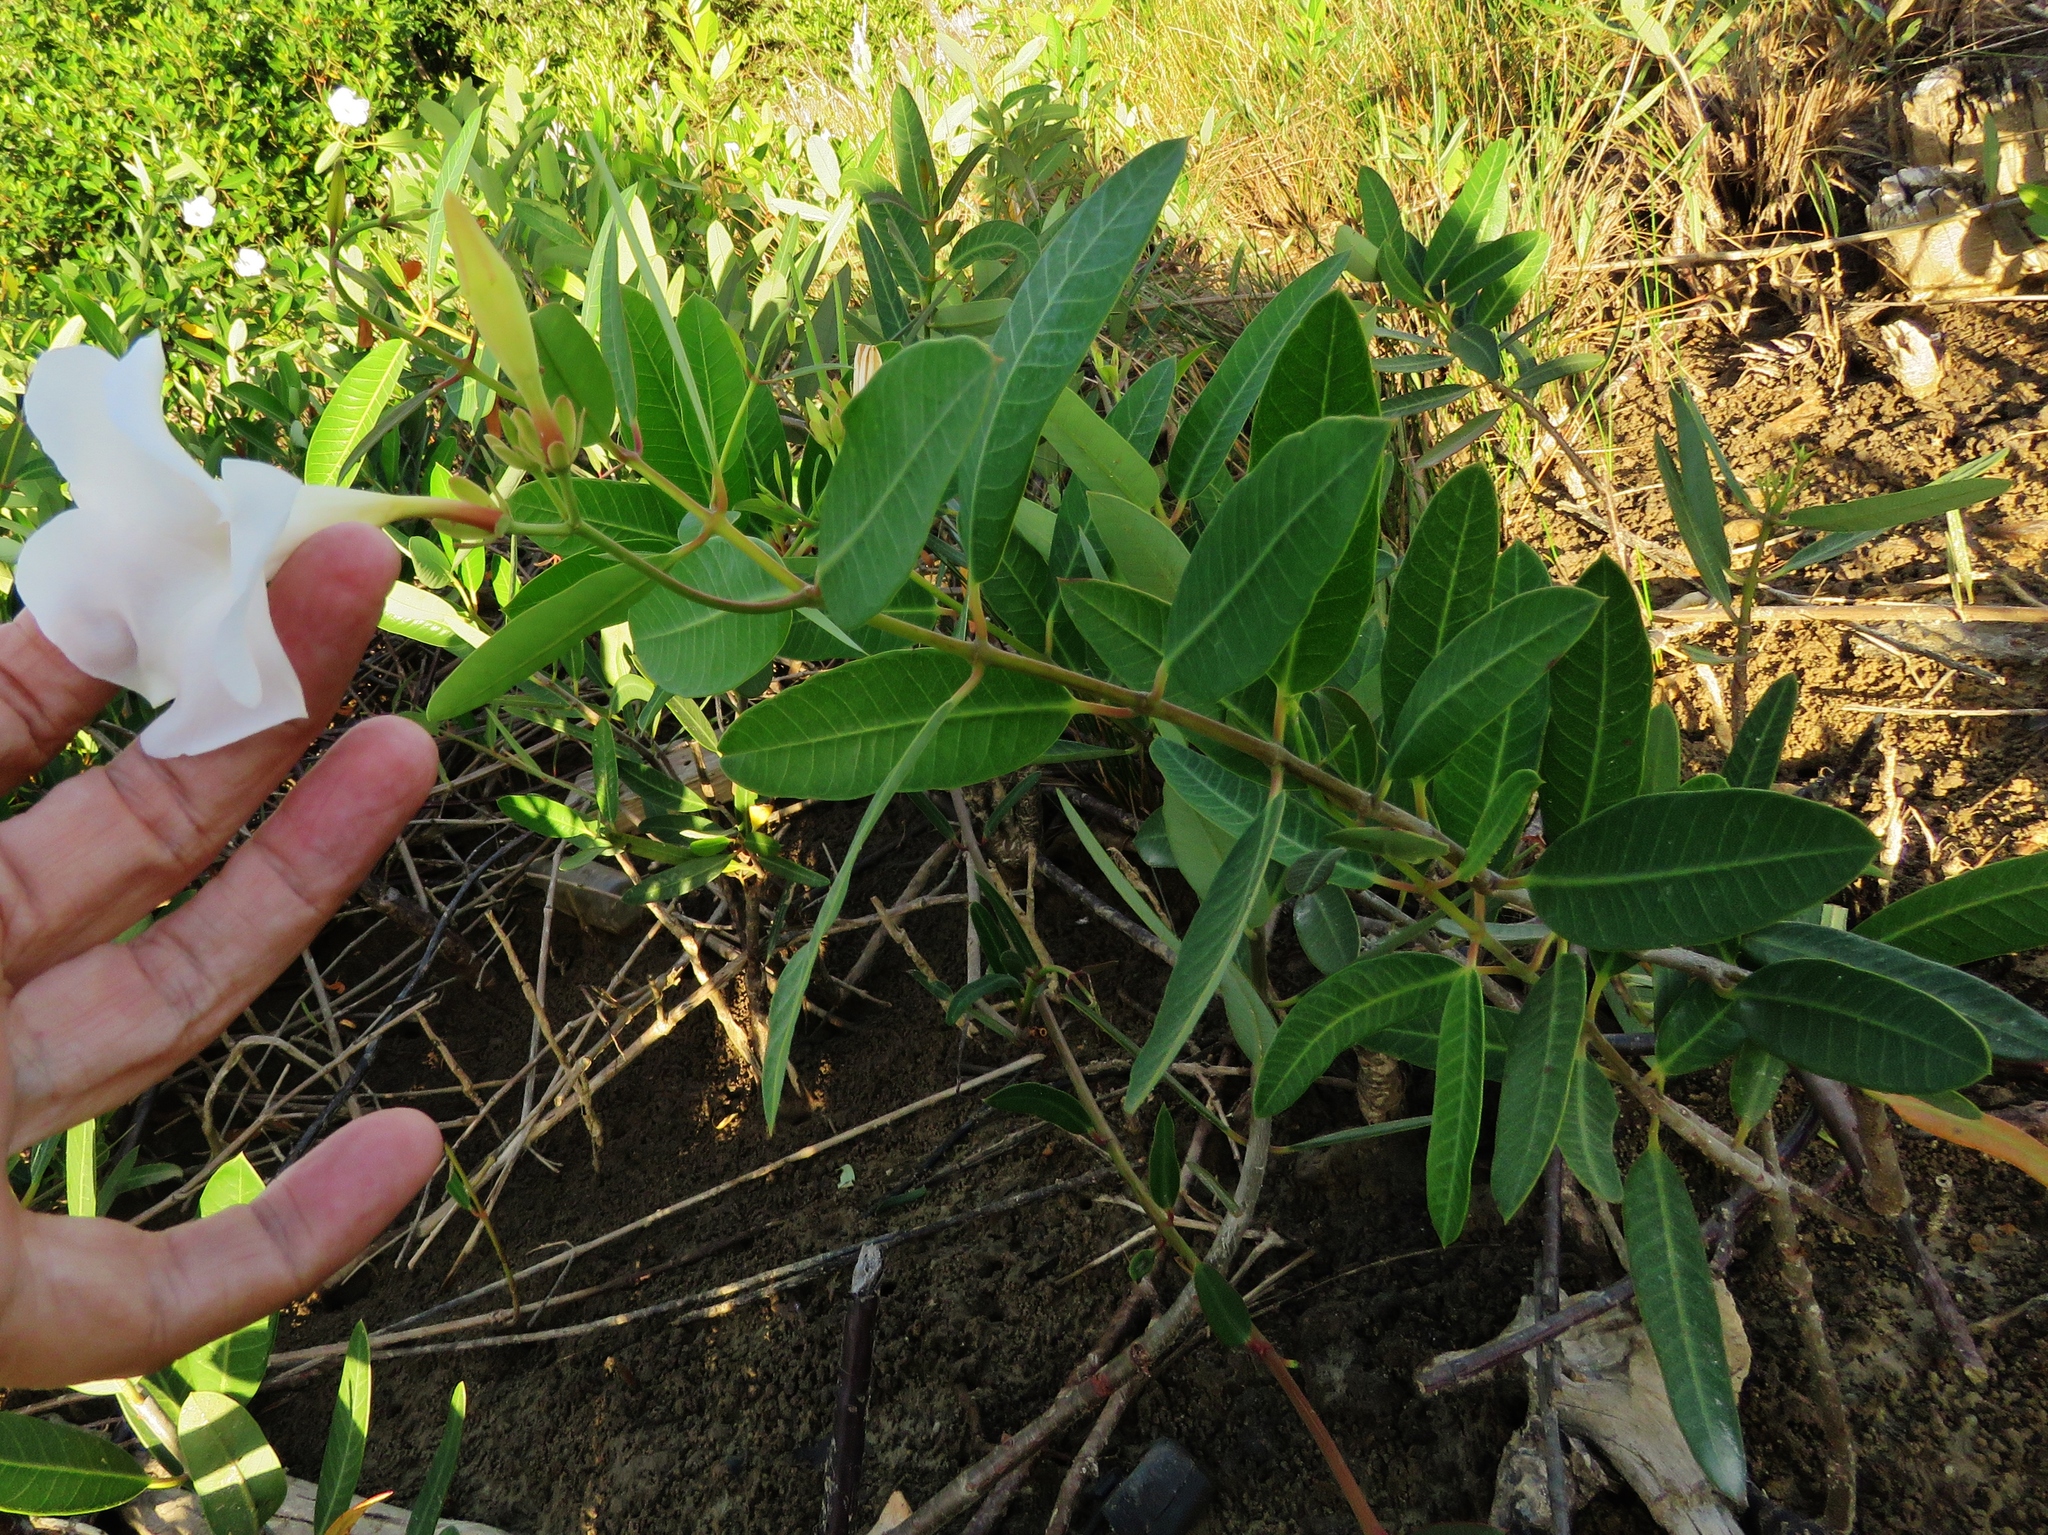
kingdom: Plantae
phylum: Tracheophyta
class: Magnoliopsida
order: Gentianales
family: Apocynaceae
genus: Rhabdadenia
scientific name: Rhabdadenia biflora
